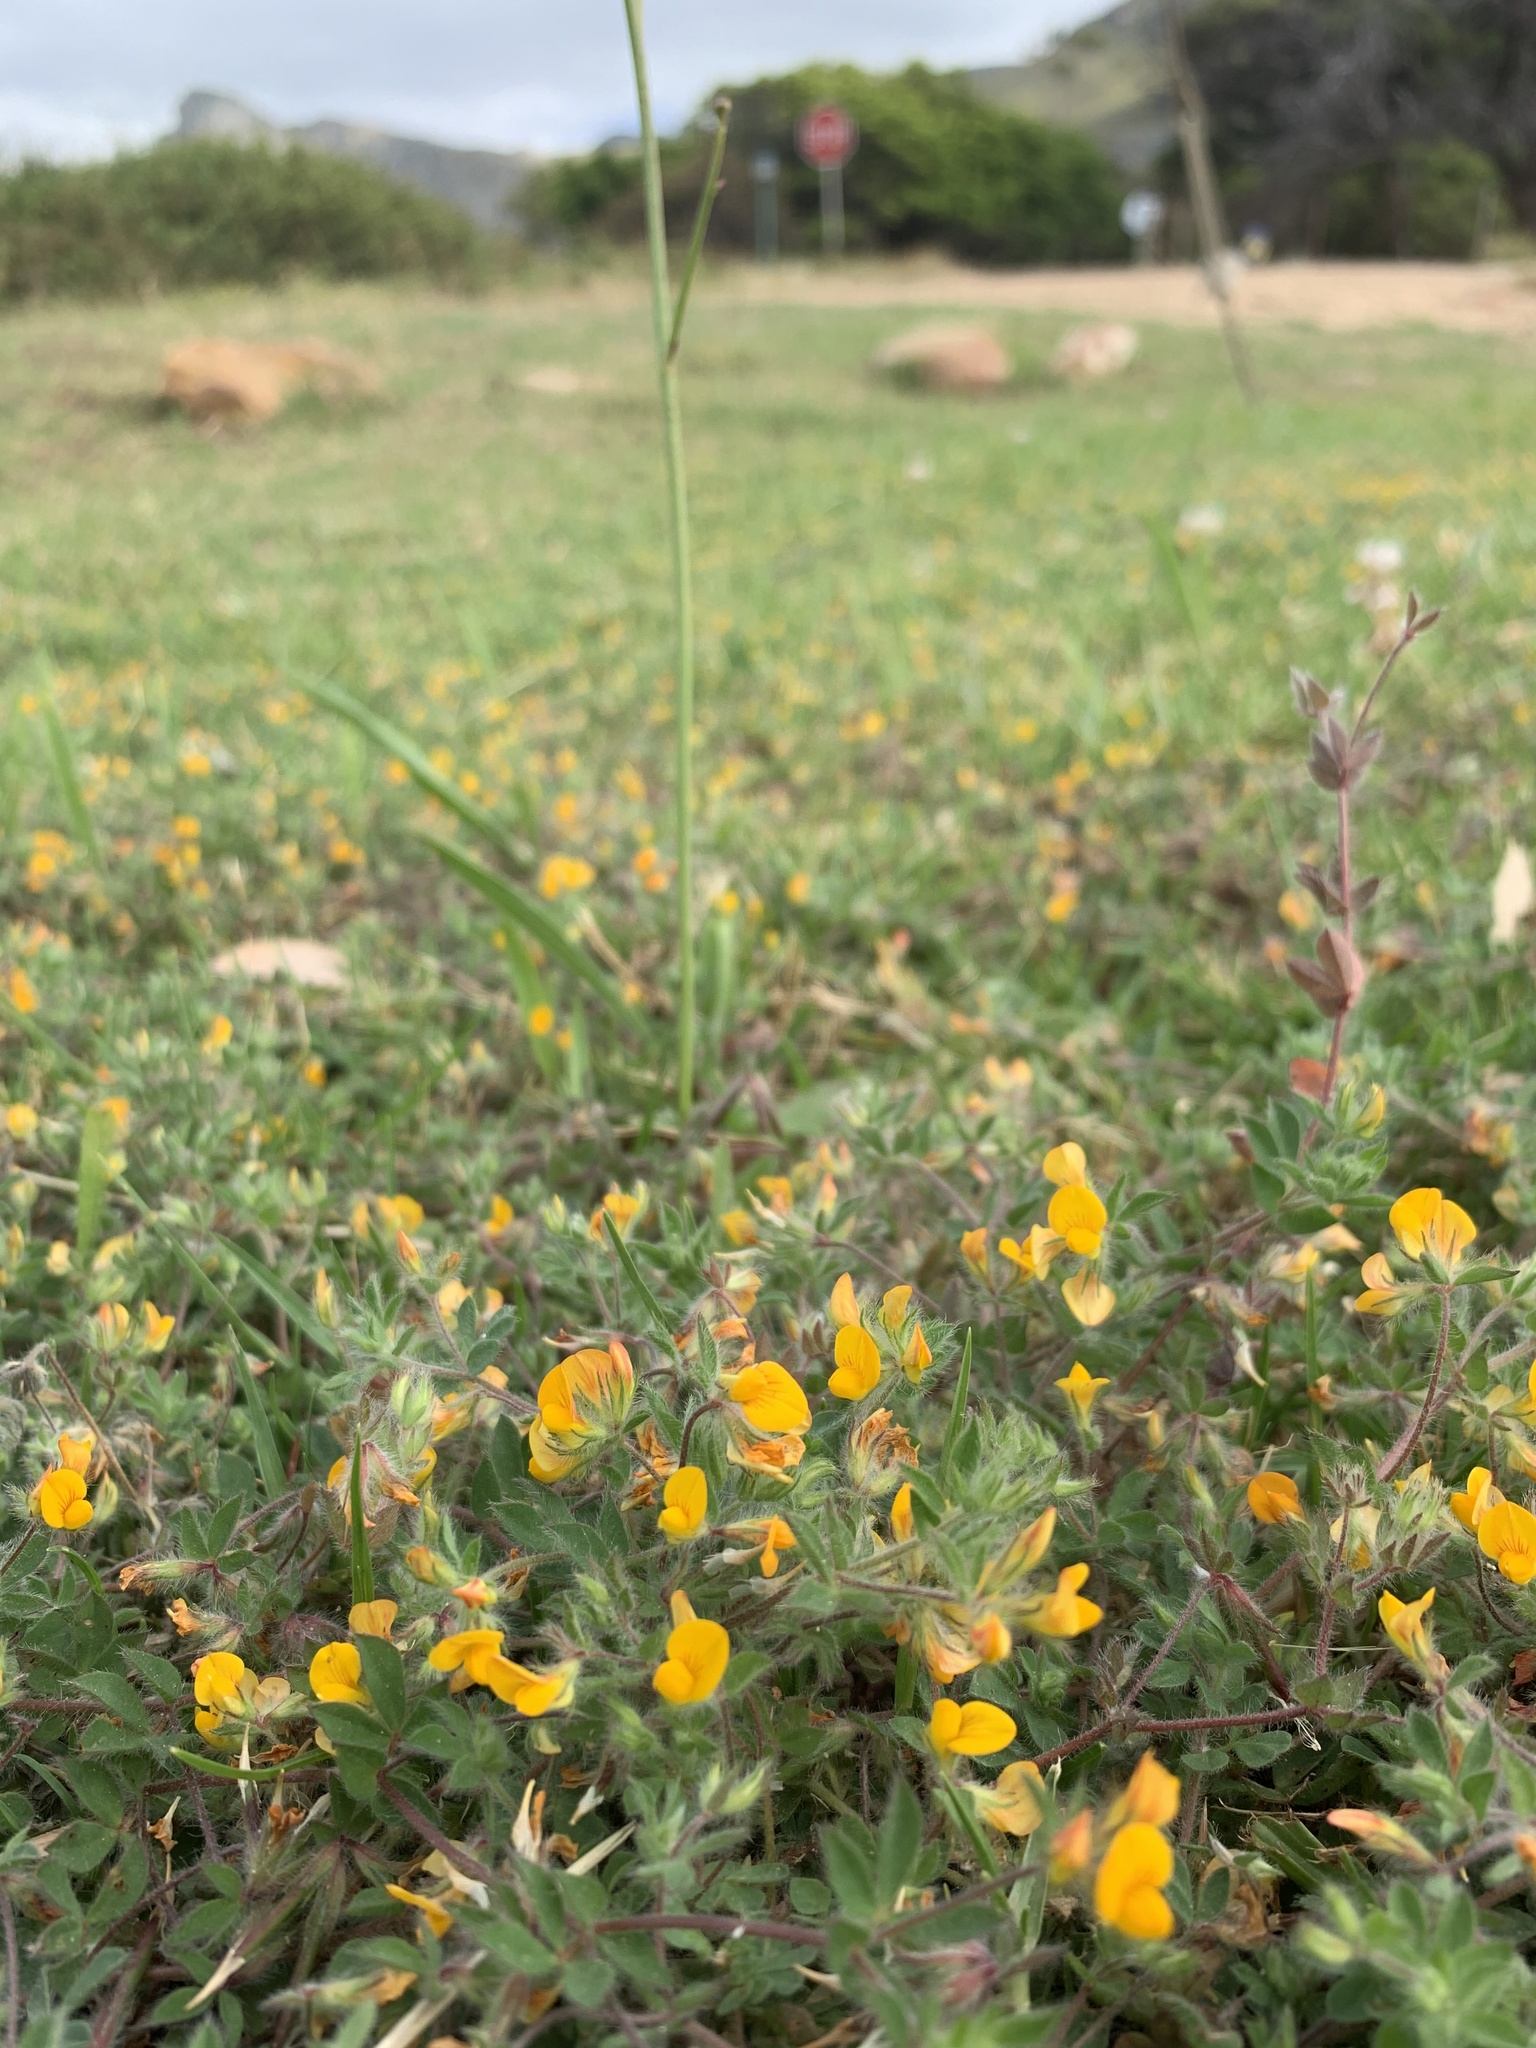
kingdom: Plantae
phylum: Tracheophyta
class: Magnoliopsida
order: Fabales
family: Fabaceae
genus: Lotus
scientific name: Lotus subbiflorus
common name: Hairy bird's-foot trefoil
